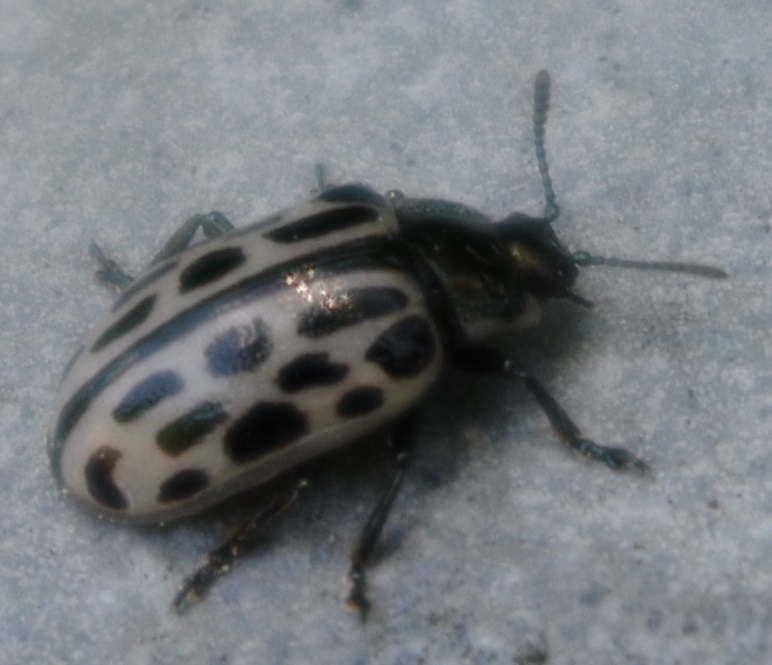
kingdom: Animalia
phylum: Arthropoda
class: Insecta
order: Coleoptera
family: Chrysomelidae
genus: Chrysomela
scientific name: Chrysomela vigintipunctata
